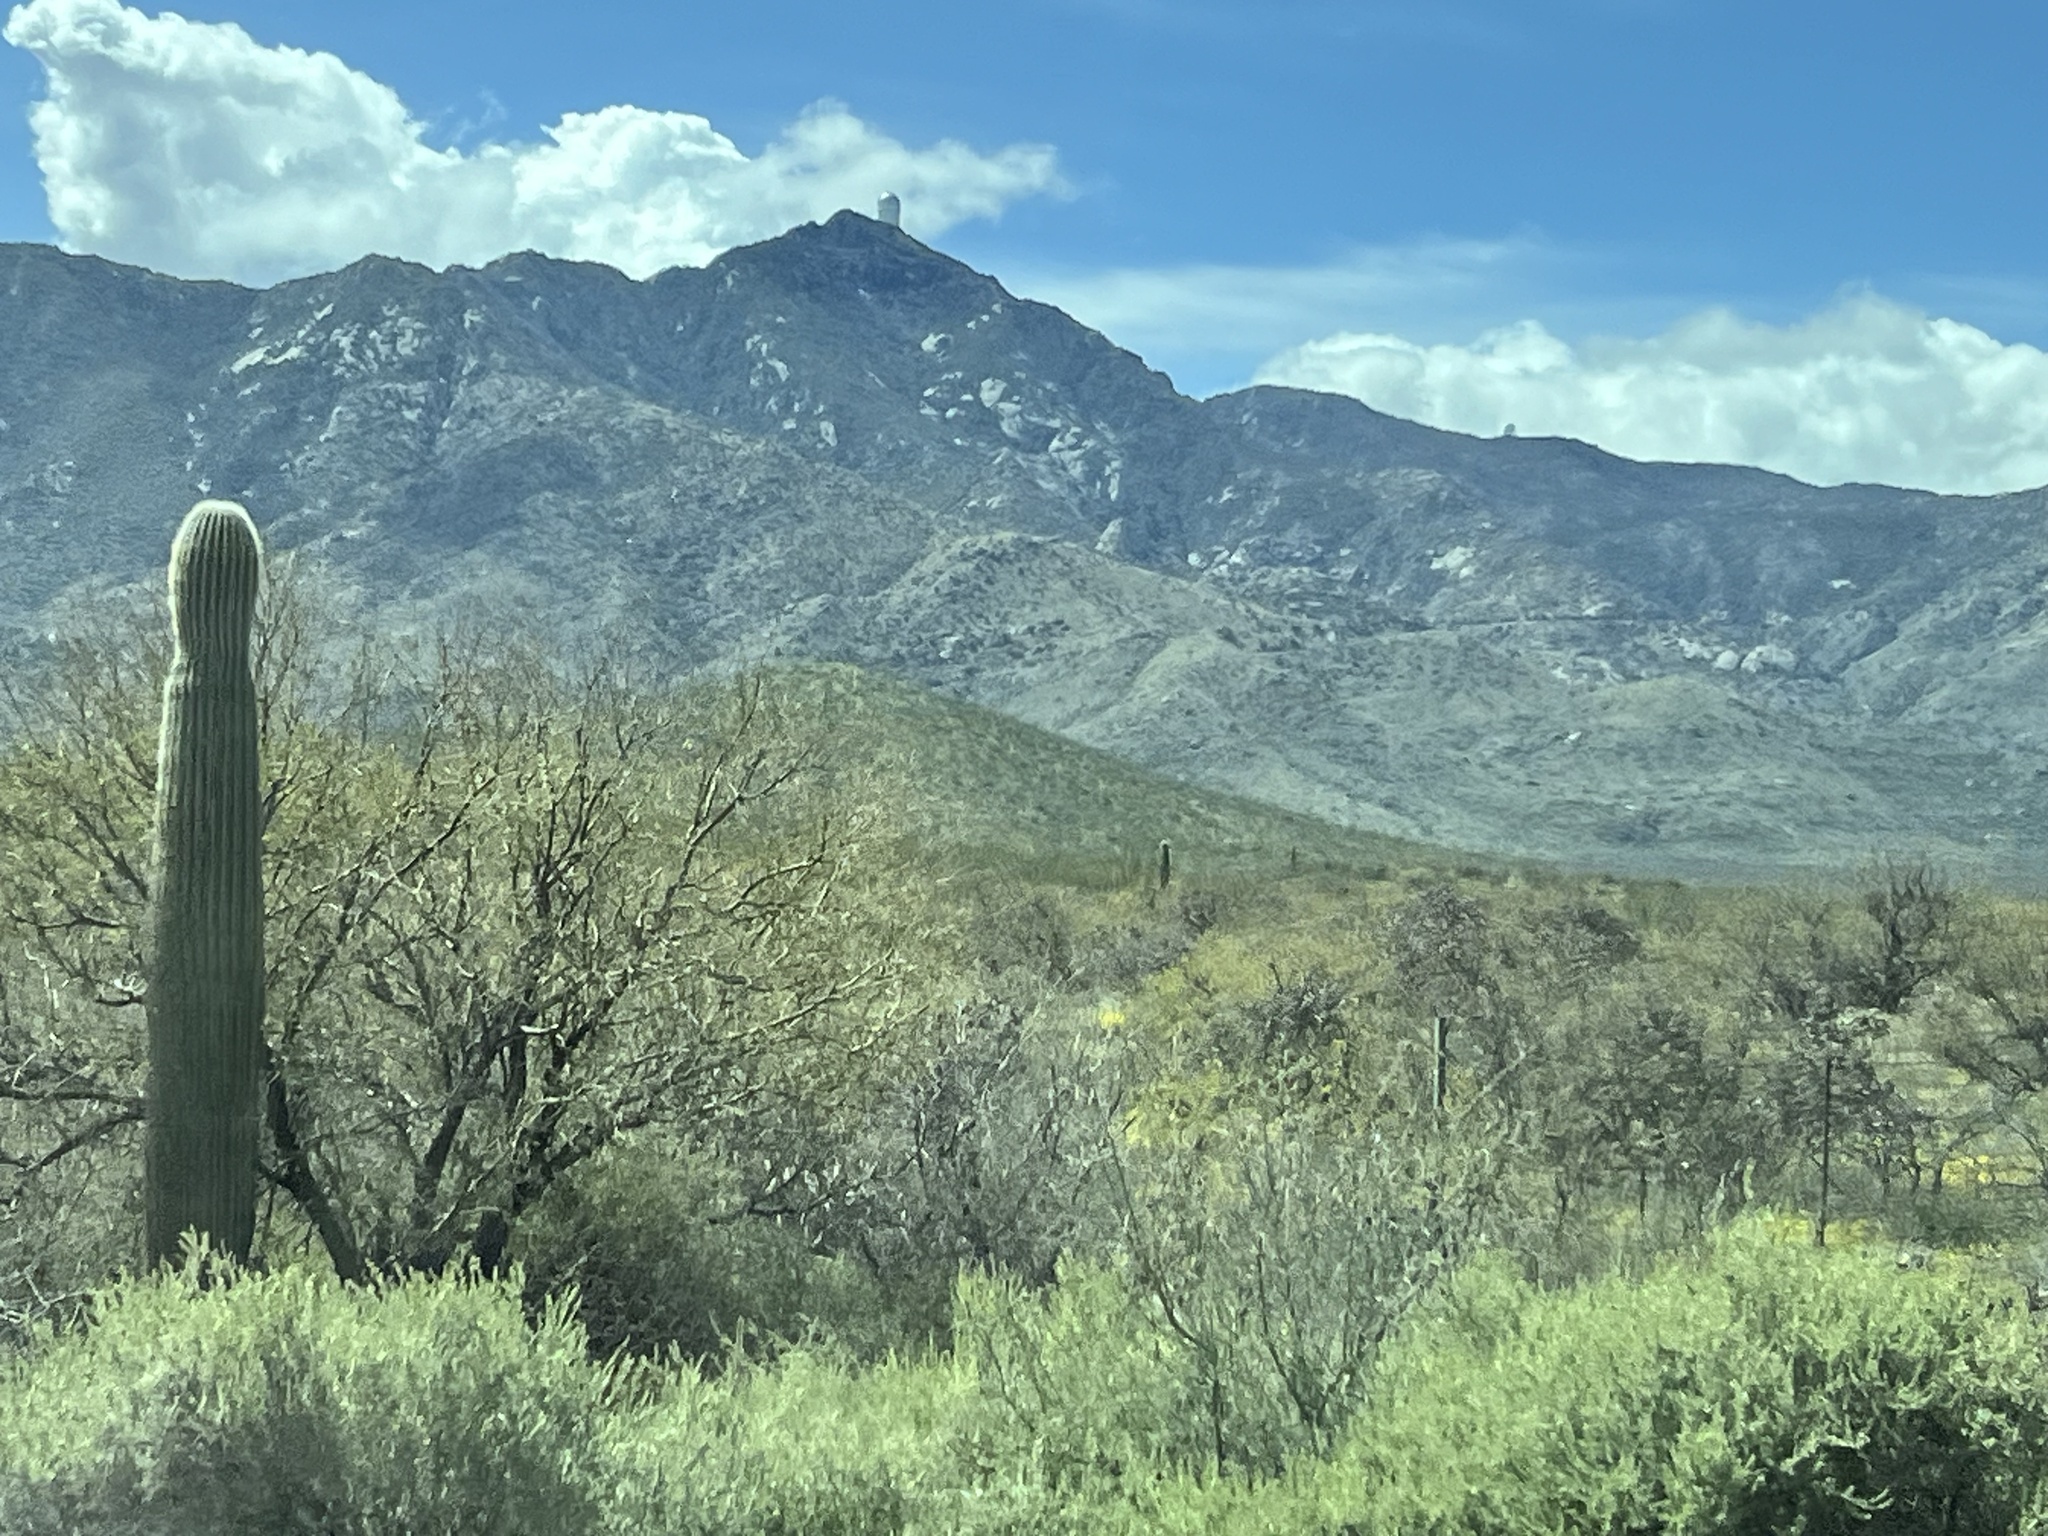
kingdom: Plantae
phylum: Tracheophyta
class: Magnoliopsida
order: Caryophyllales
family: Cactaceae
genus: Carnegiea
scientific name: Carnegiea gigantea
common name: Saguaro
